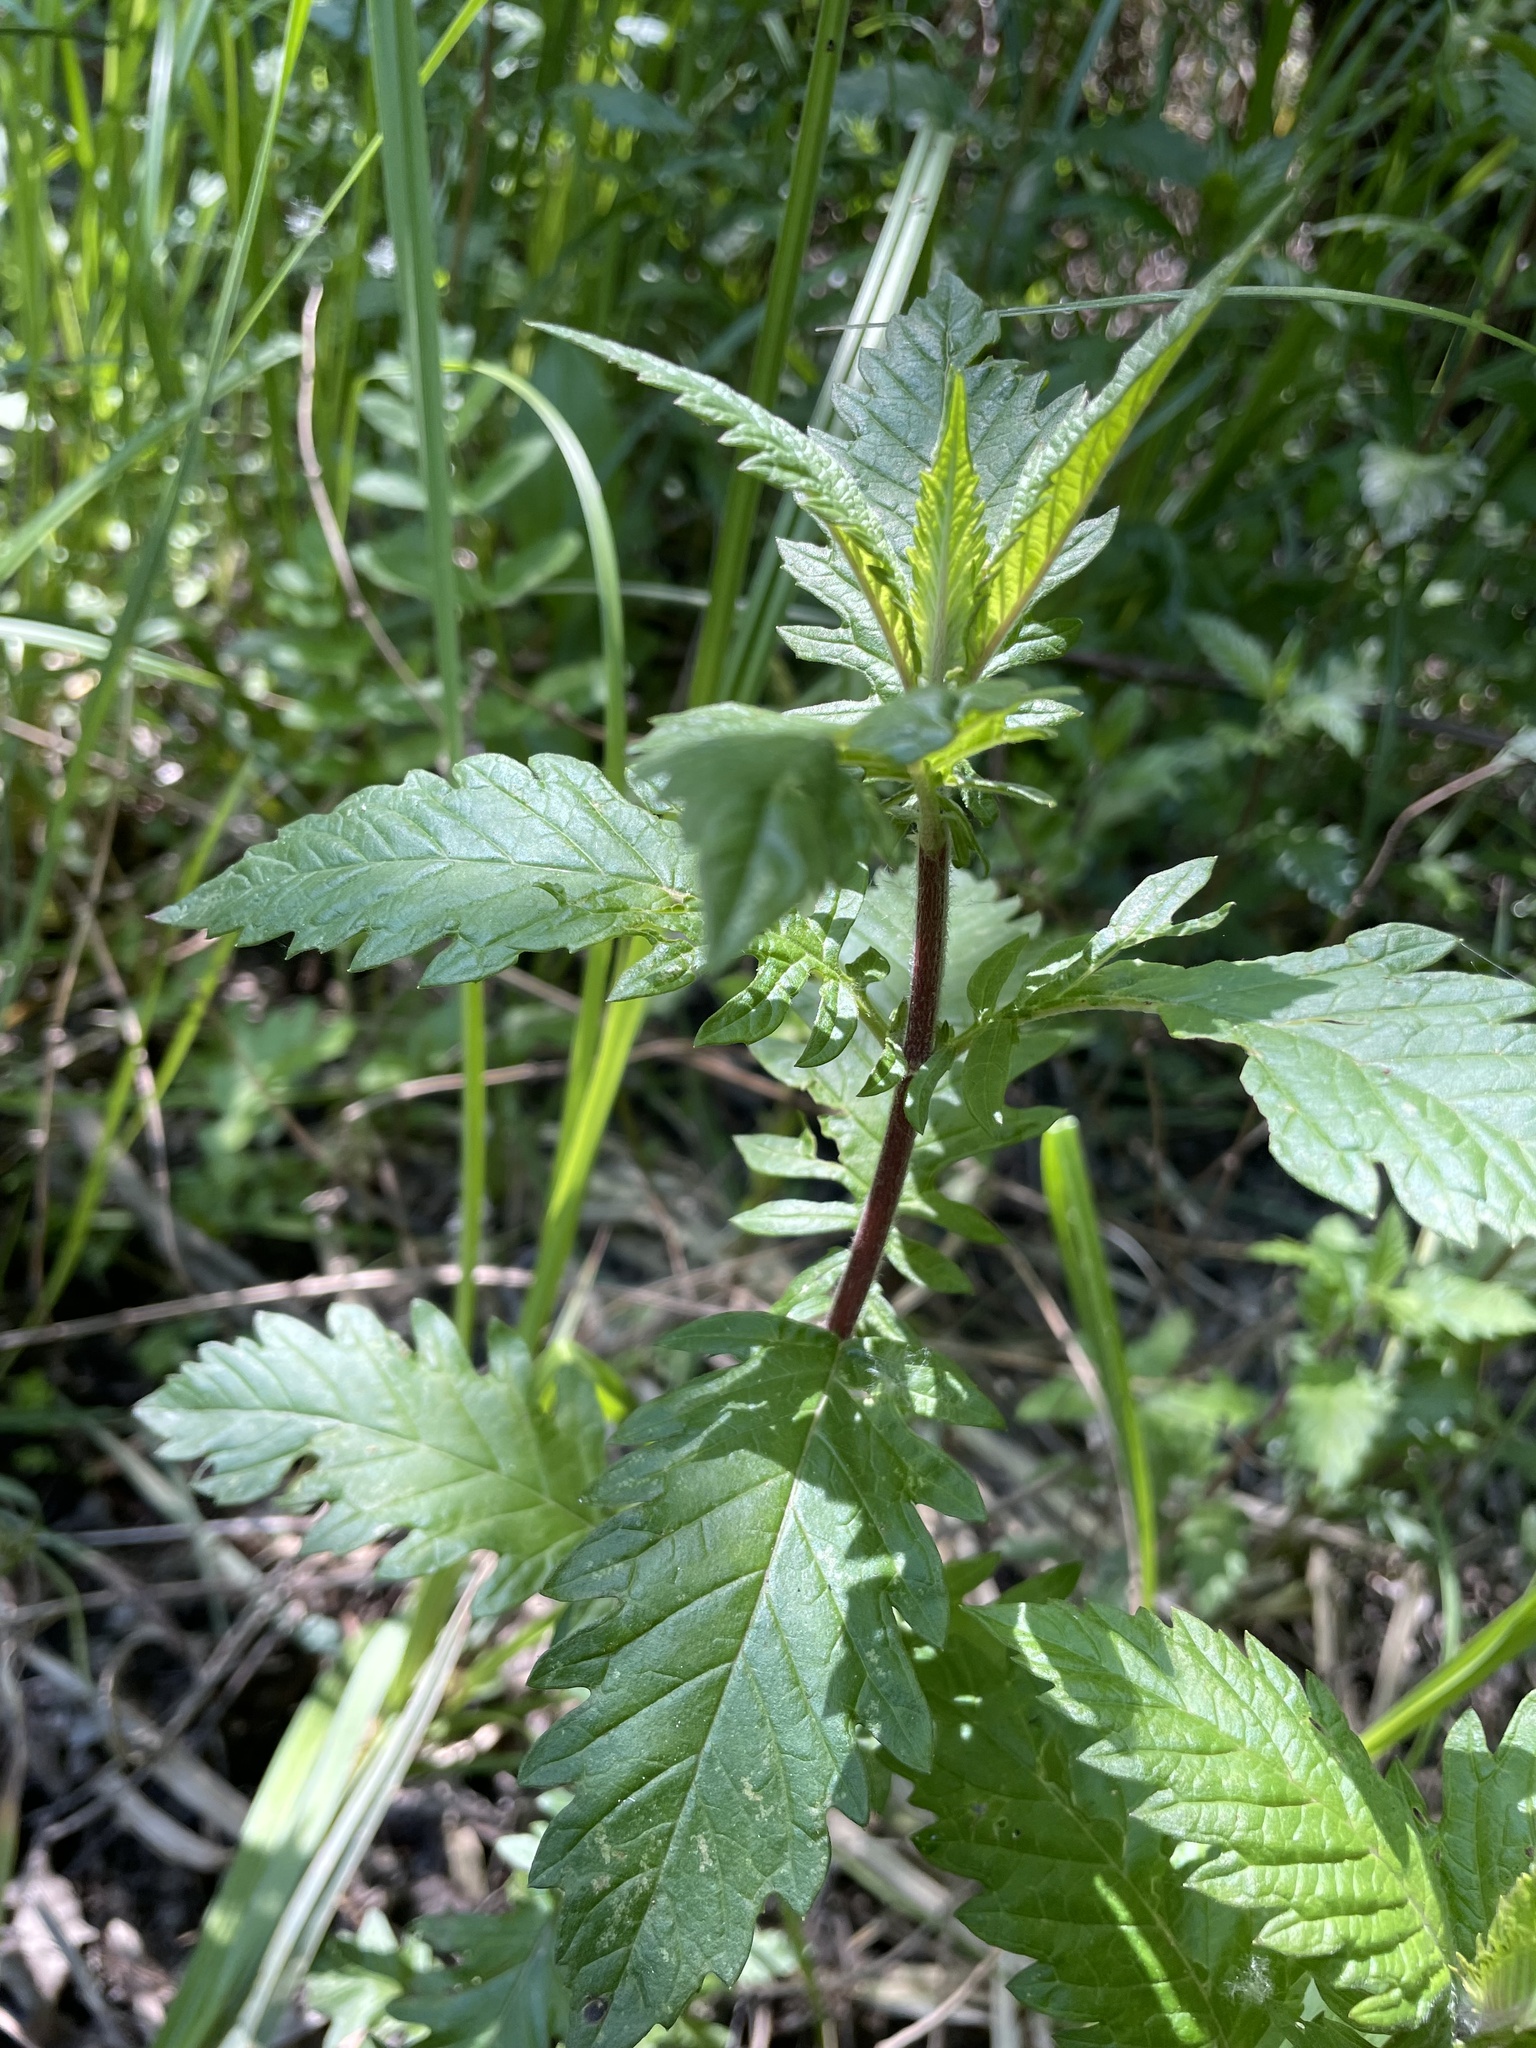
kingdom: Plantae
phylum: Tracheophyta
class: Magnoliopsida
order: Lamiales
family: Lamiaceae
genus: Lycopus
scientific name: Lycopus europaeus
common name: European bugleweed
